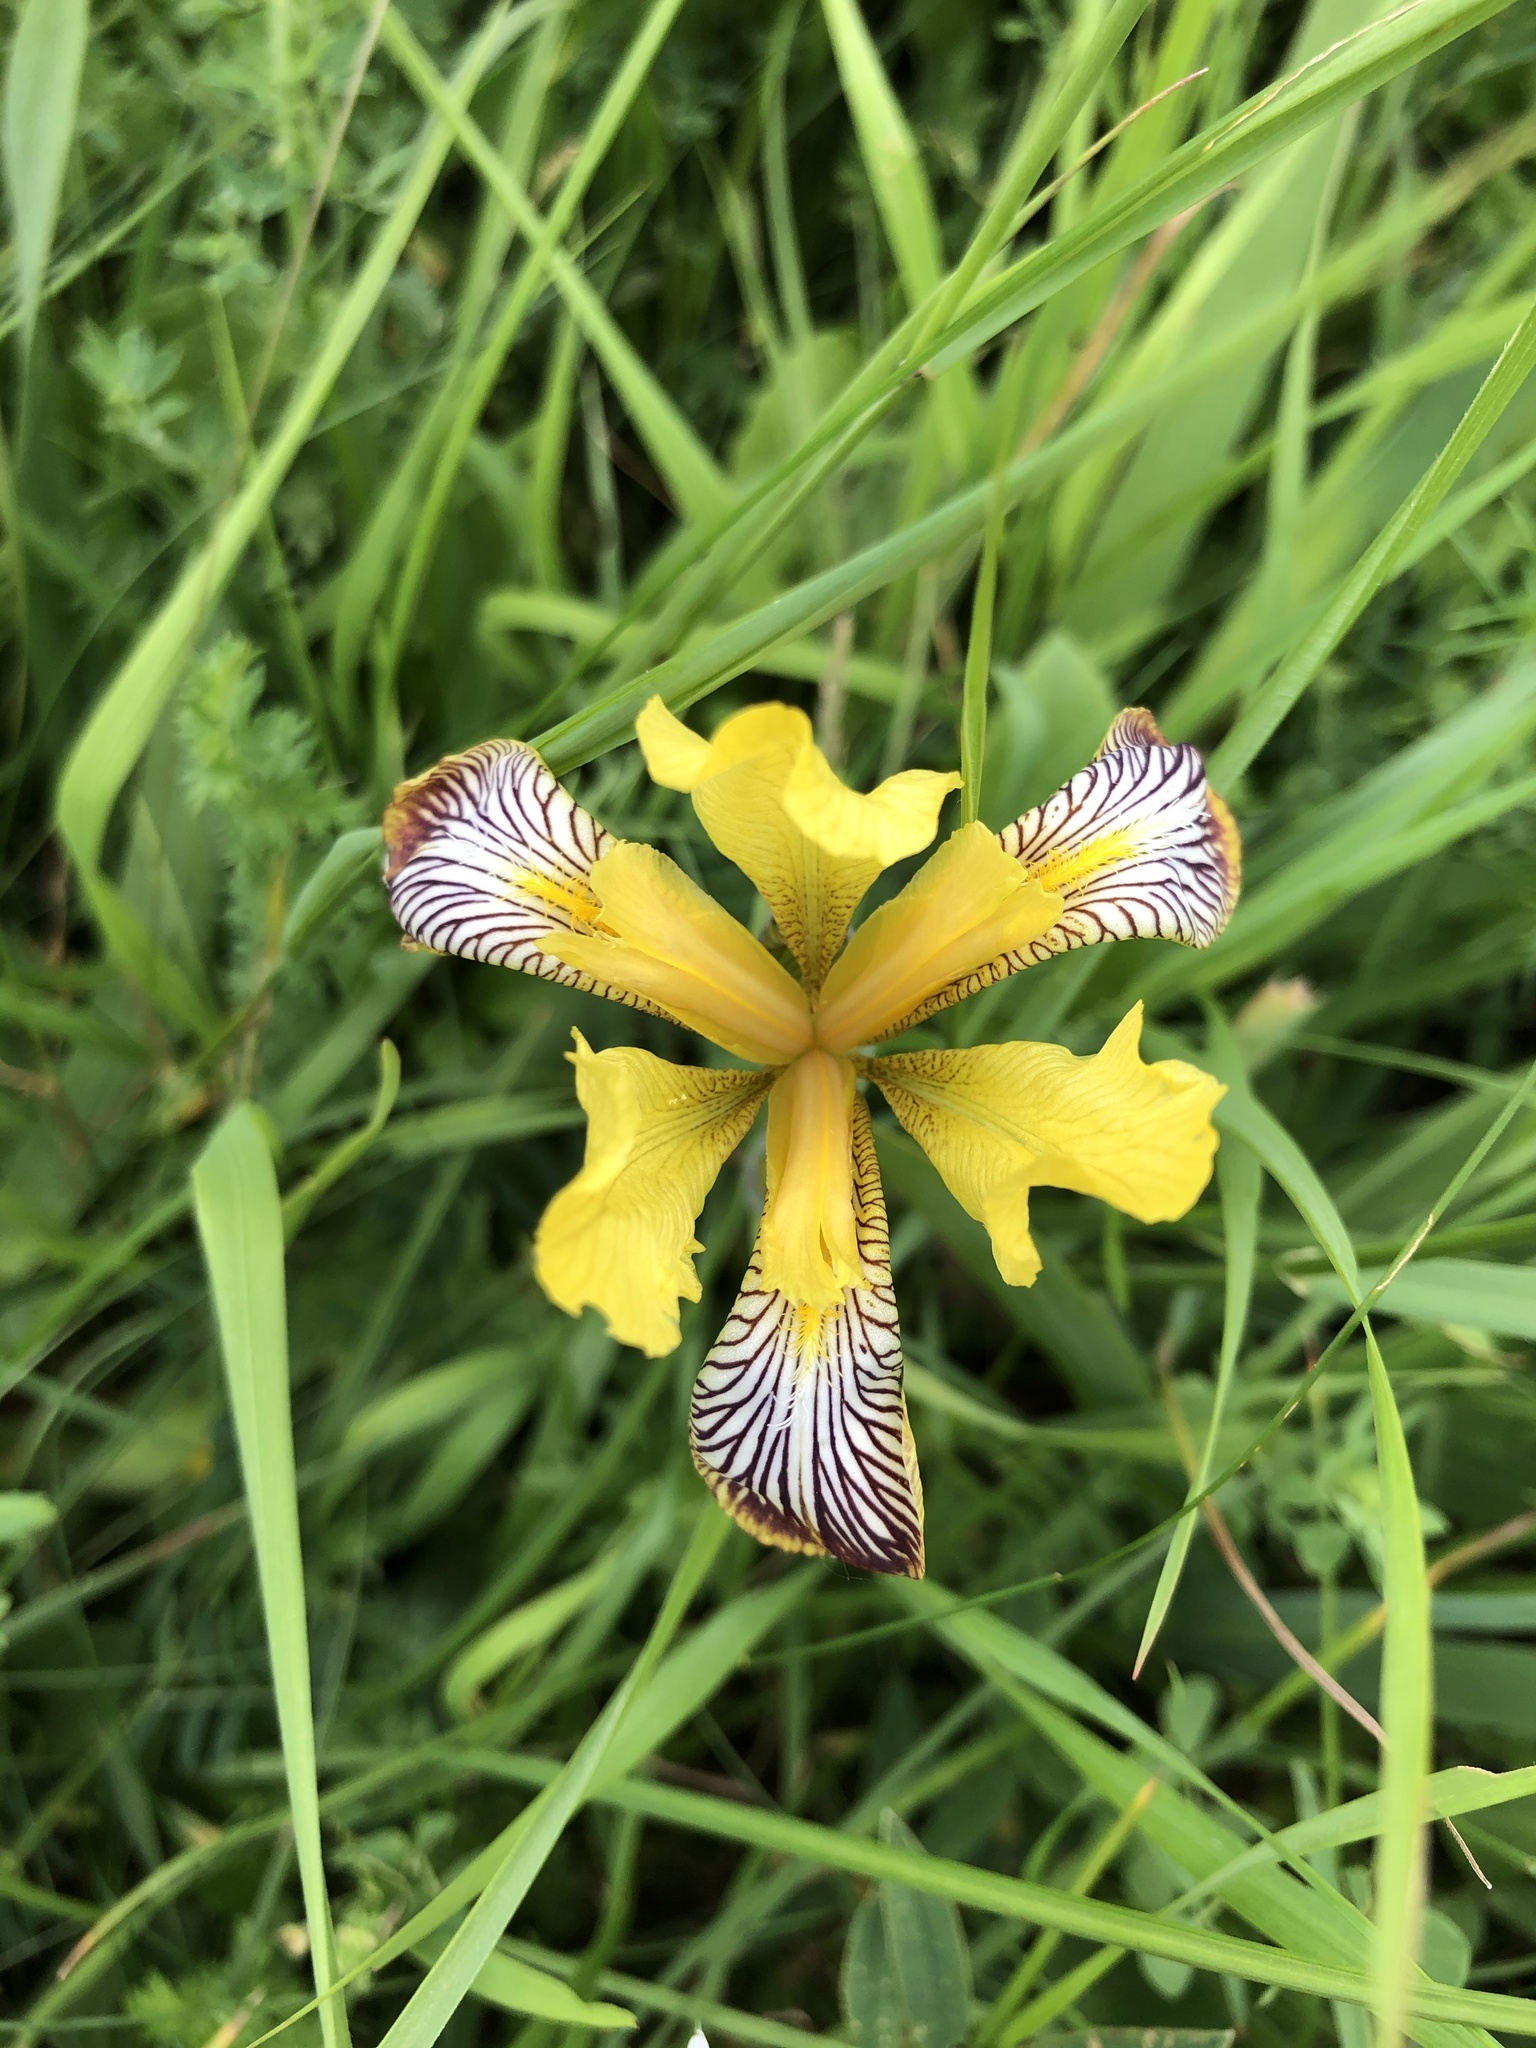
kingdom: Plantae
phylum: Tracheophyta
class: Liliopsida
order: Asparagales
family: Iridaceae
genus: Iris
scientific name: Iris variegata
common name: Hungarian iris
